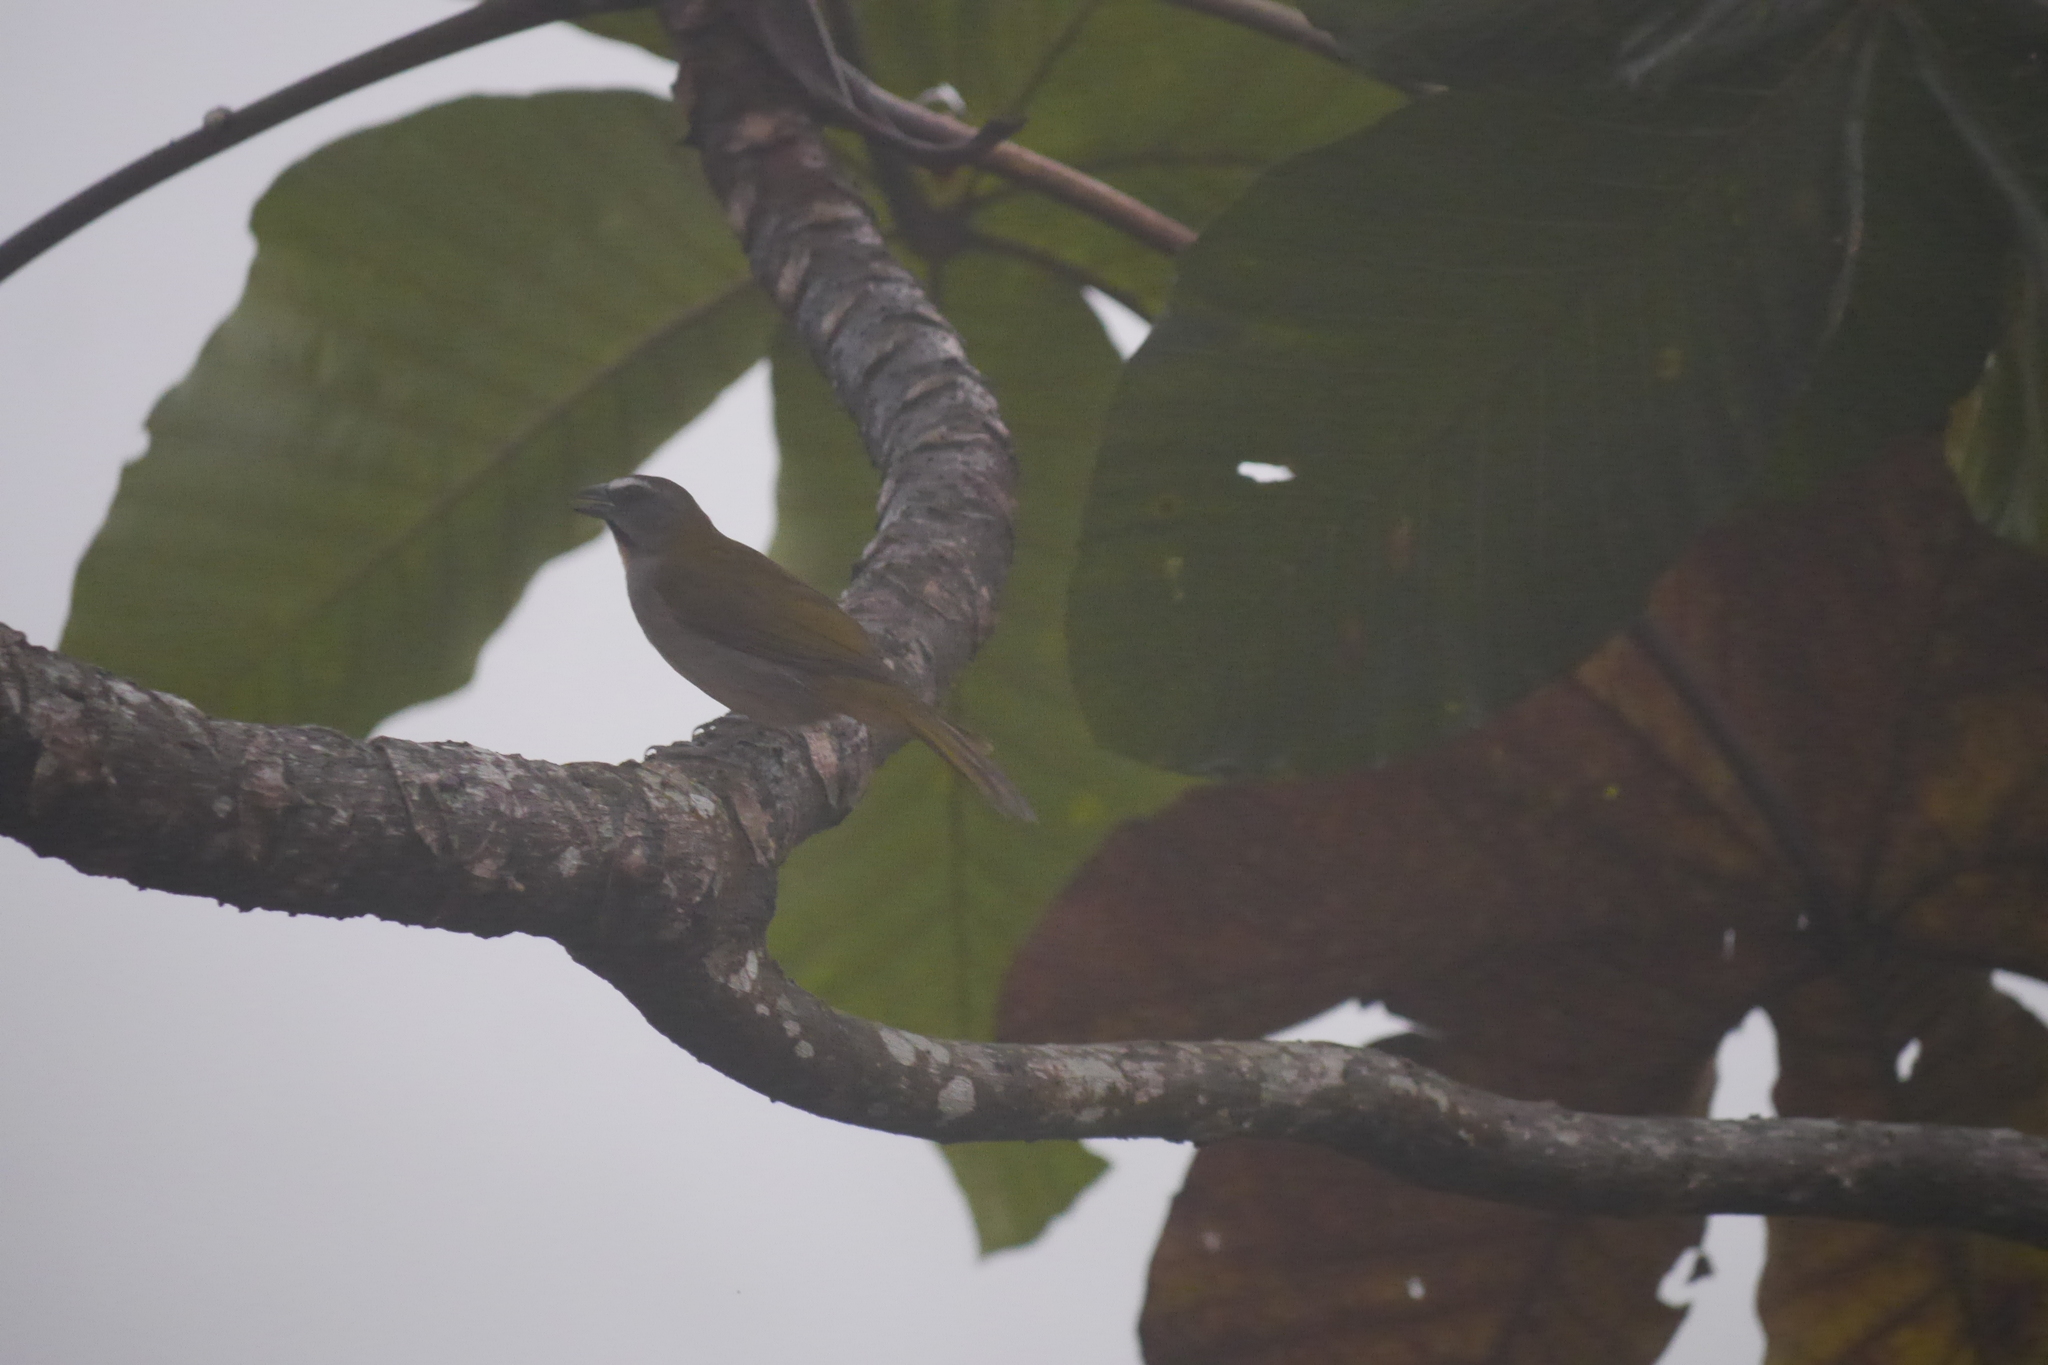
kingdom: Animalia
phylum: Chordata
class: Aves
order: Passeriformes
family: Thraupidae
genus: Saltator
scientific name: Saltator maximus
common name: Buff-throated saltator
